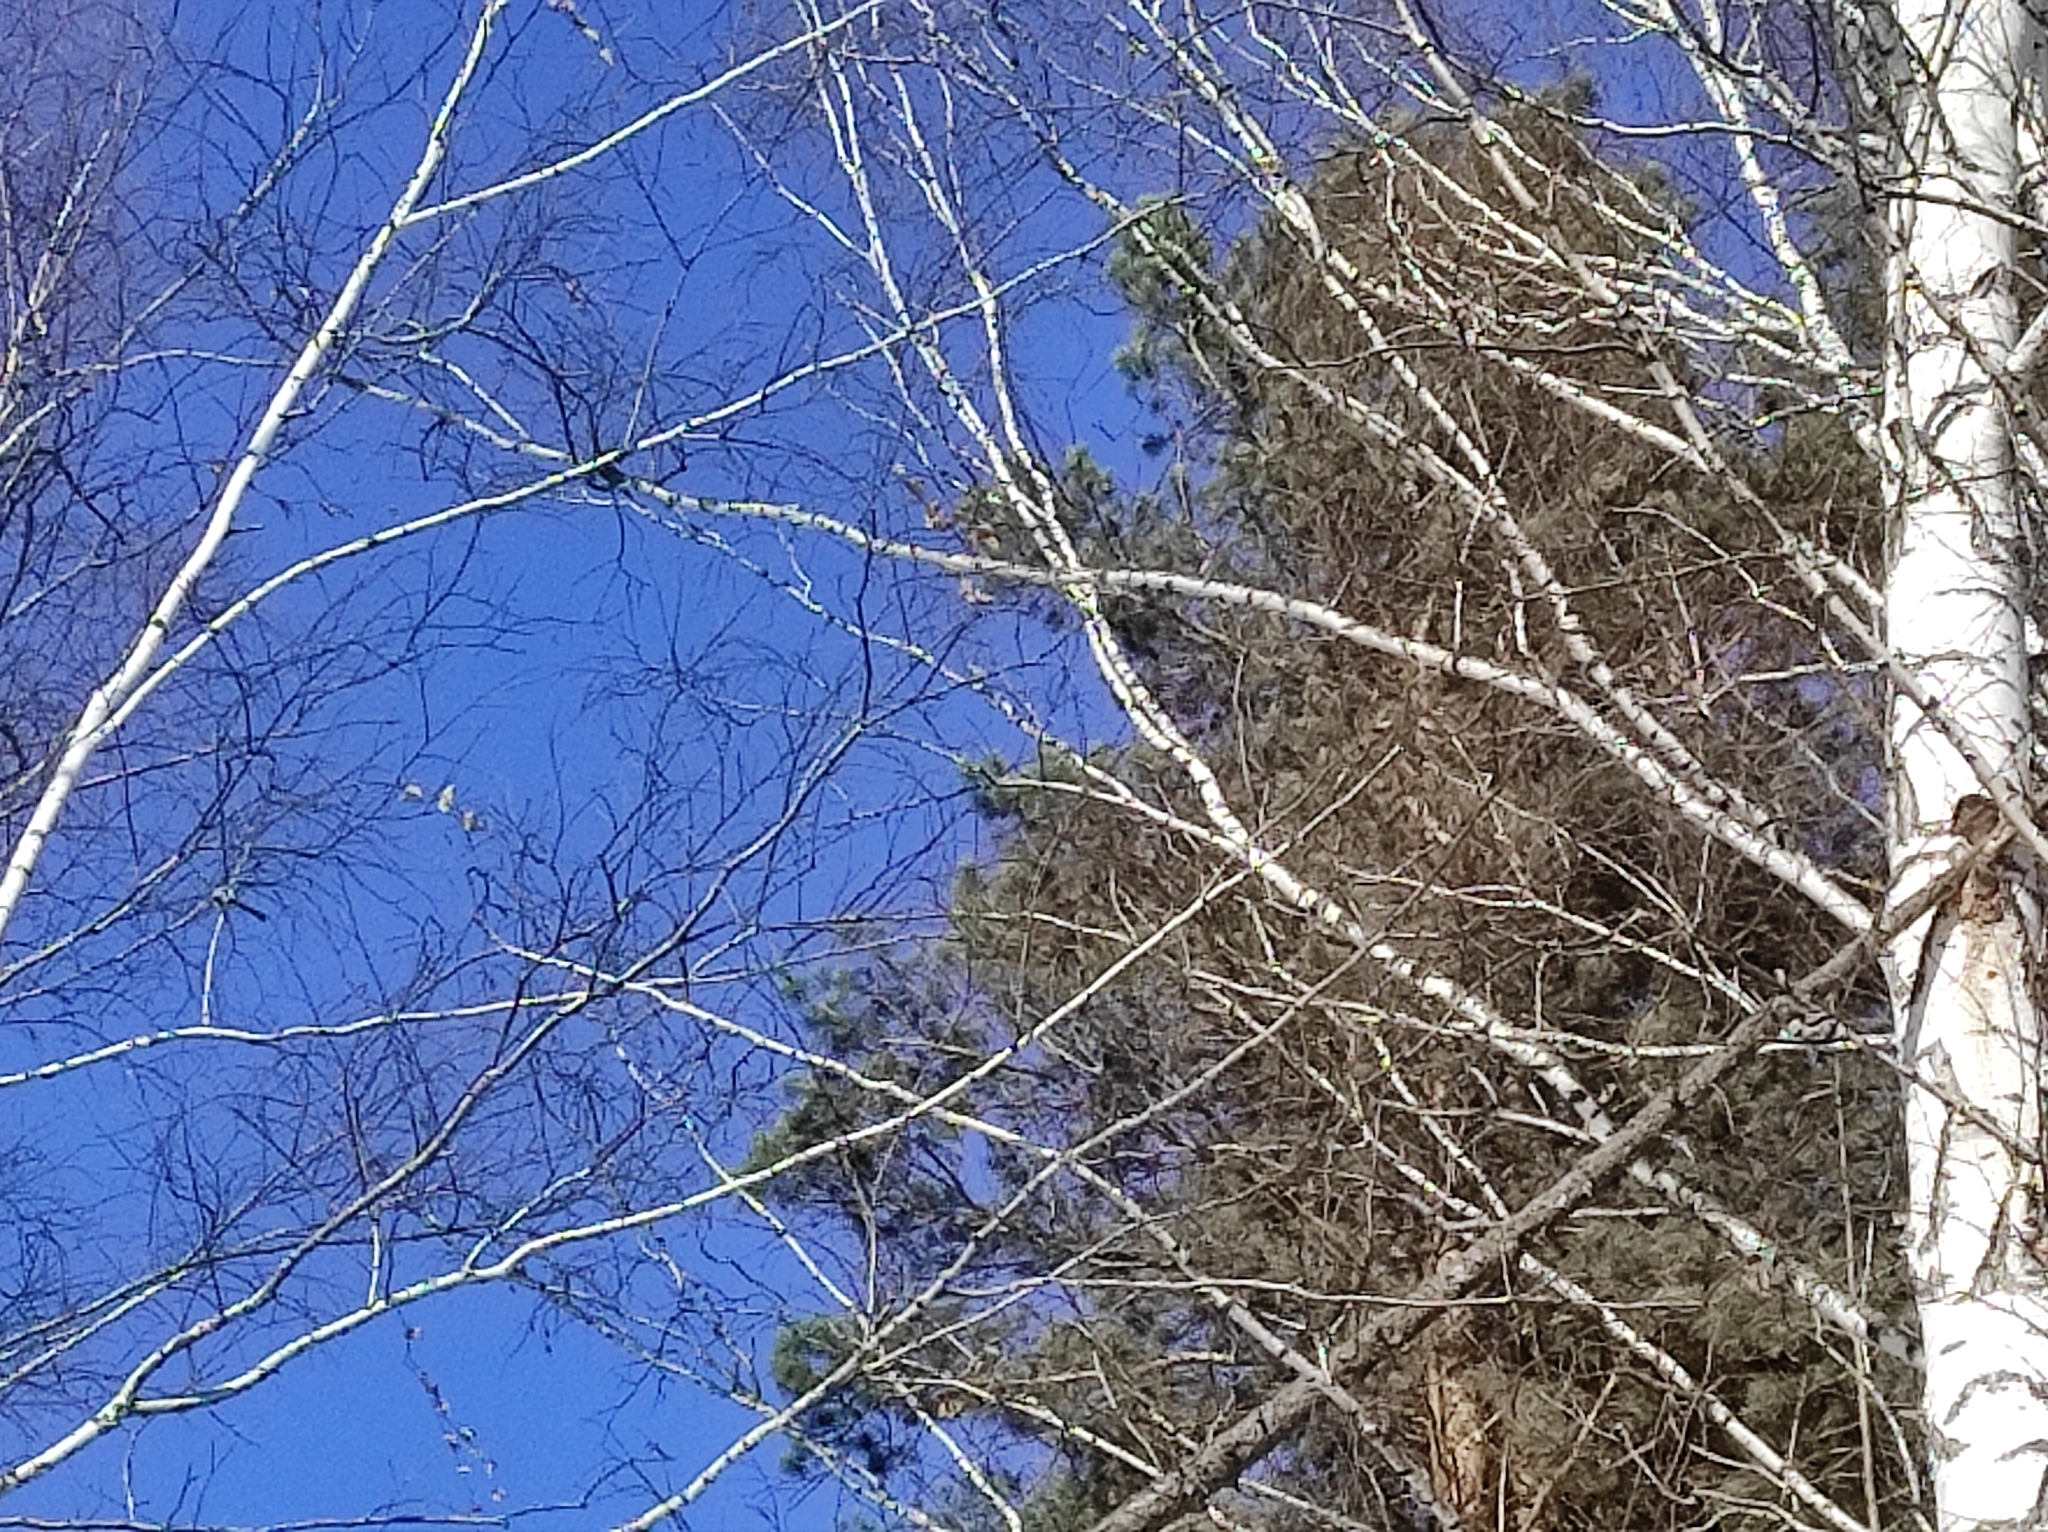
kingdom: Plantae
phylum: Tracheophyta
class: Magnoliopsida
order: Fagales
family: Betulaceae
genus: Betula
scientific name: Betula pendula
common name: Silver birch
